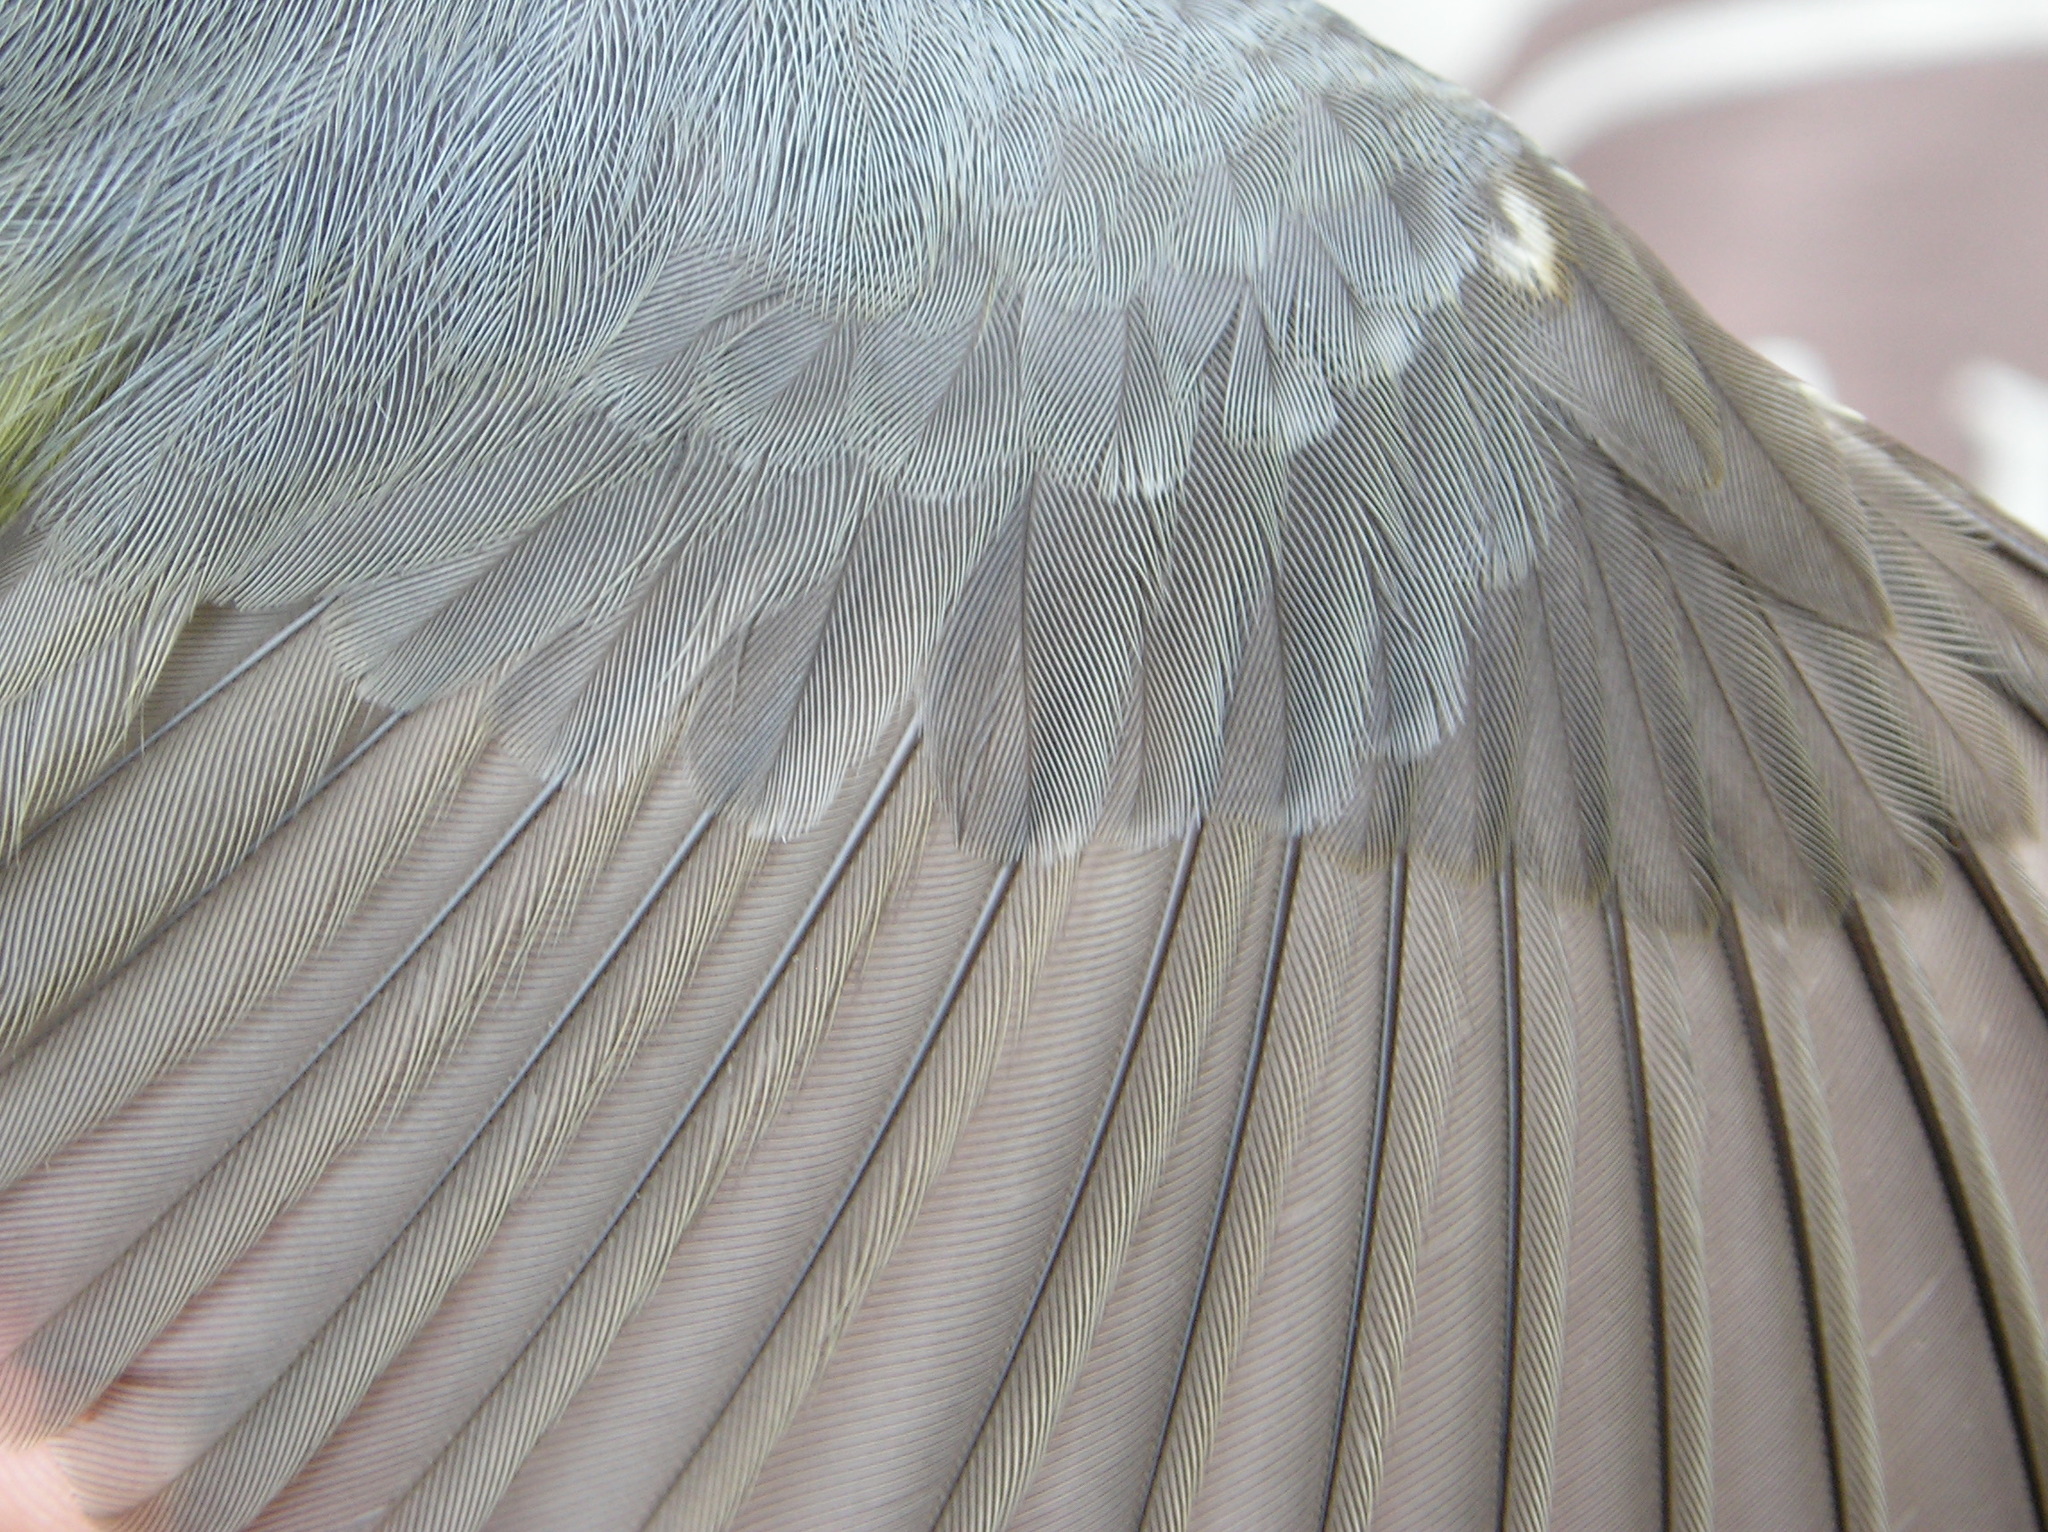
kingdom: Animalia
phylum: Chordata
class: Aves
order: Passeriformes
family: Parulidae
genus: Cardellina
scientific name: Cardellina canadensis
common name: Canada warbler
